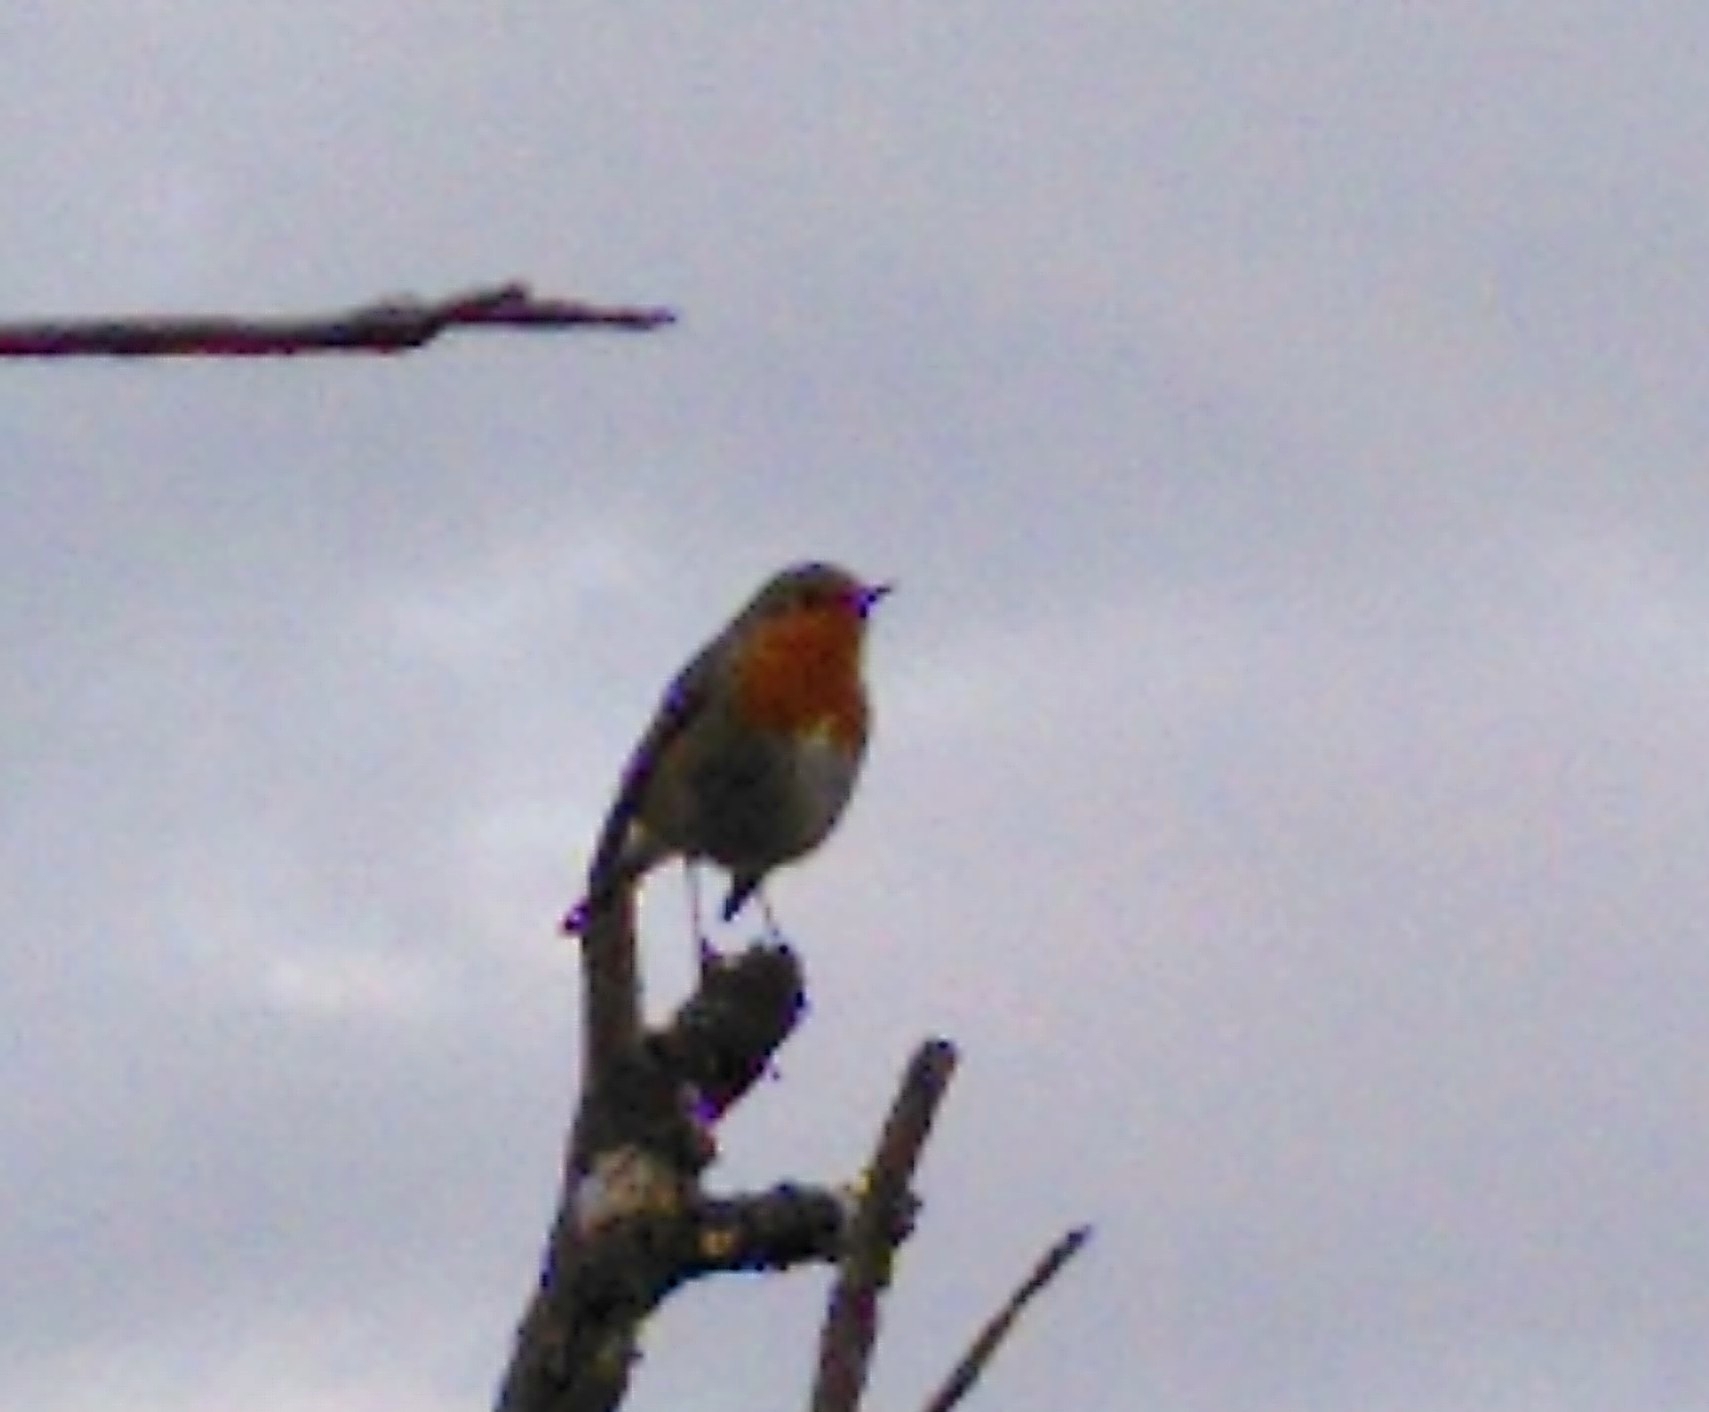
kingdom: Animalia
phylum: Chordata
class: Aves
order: Passeriformes
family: Muscicapidae
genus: Erithacus
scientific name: Erithacus rubecula
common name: European robin
